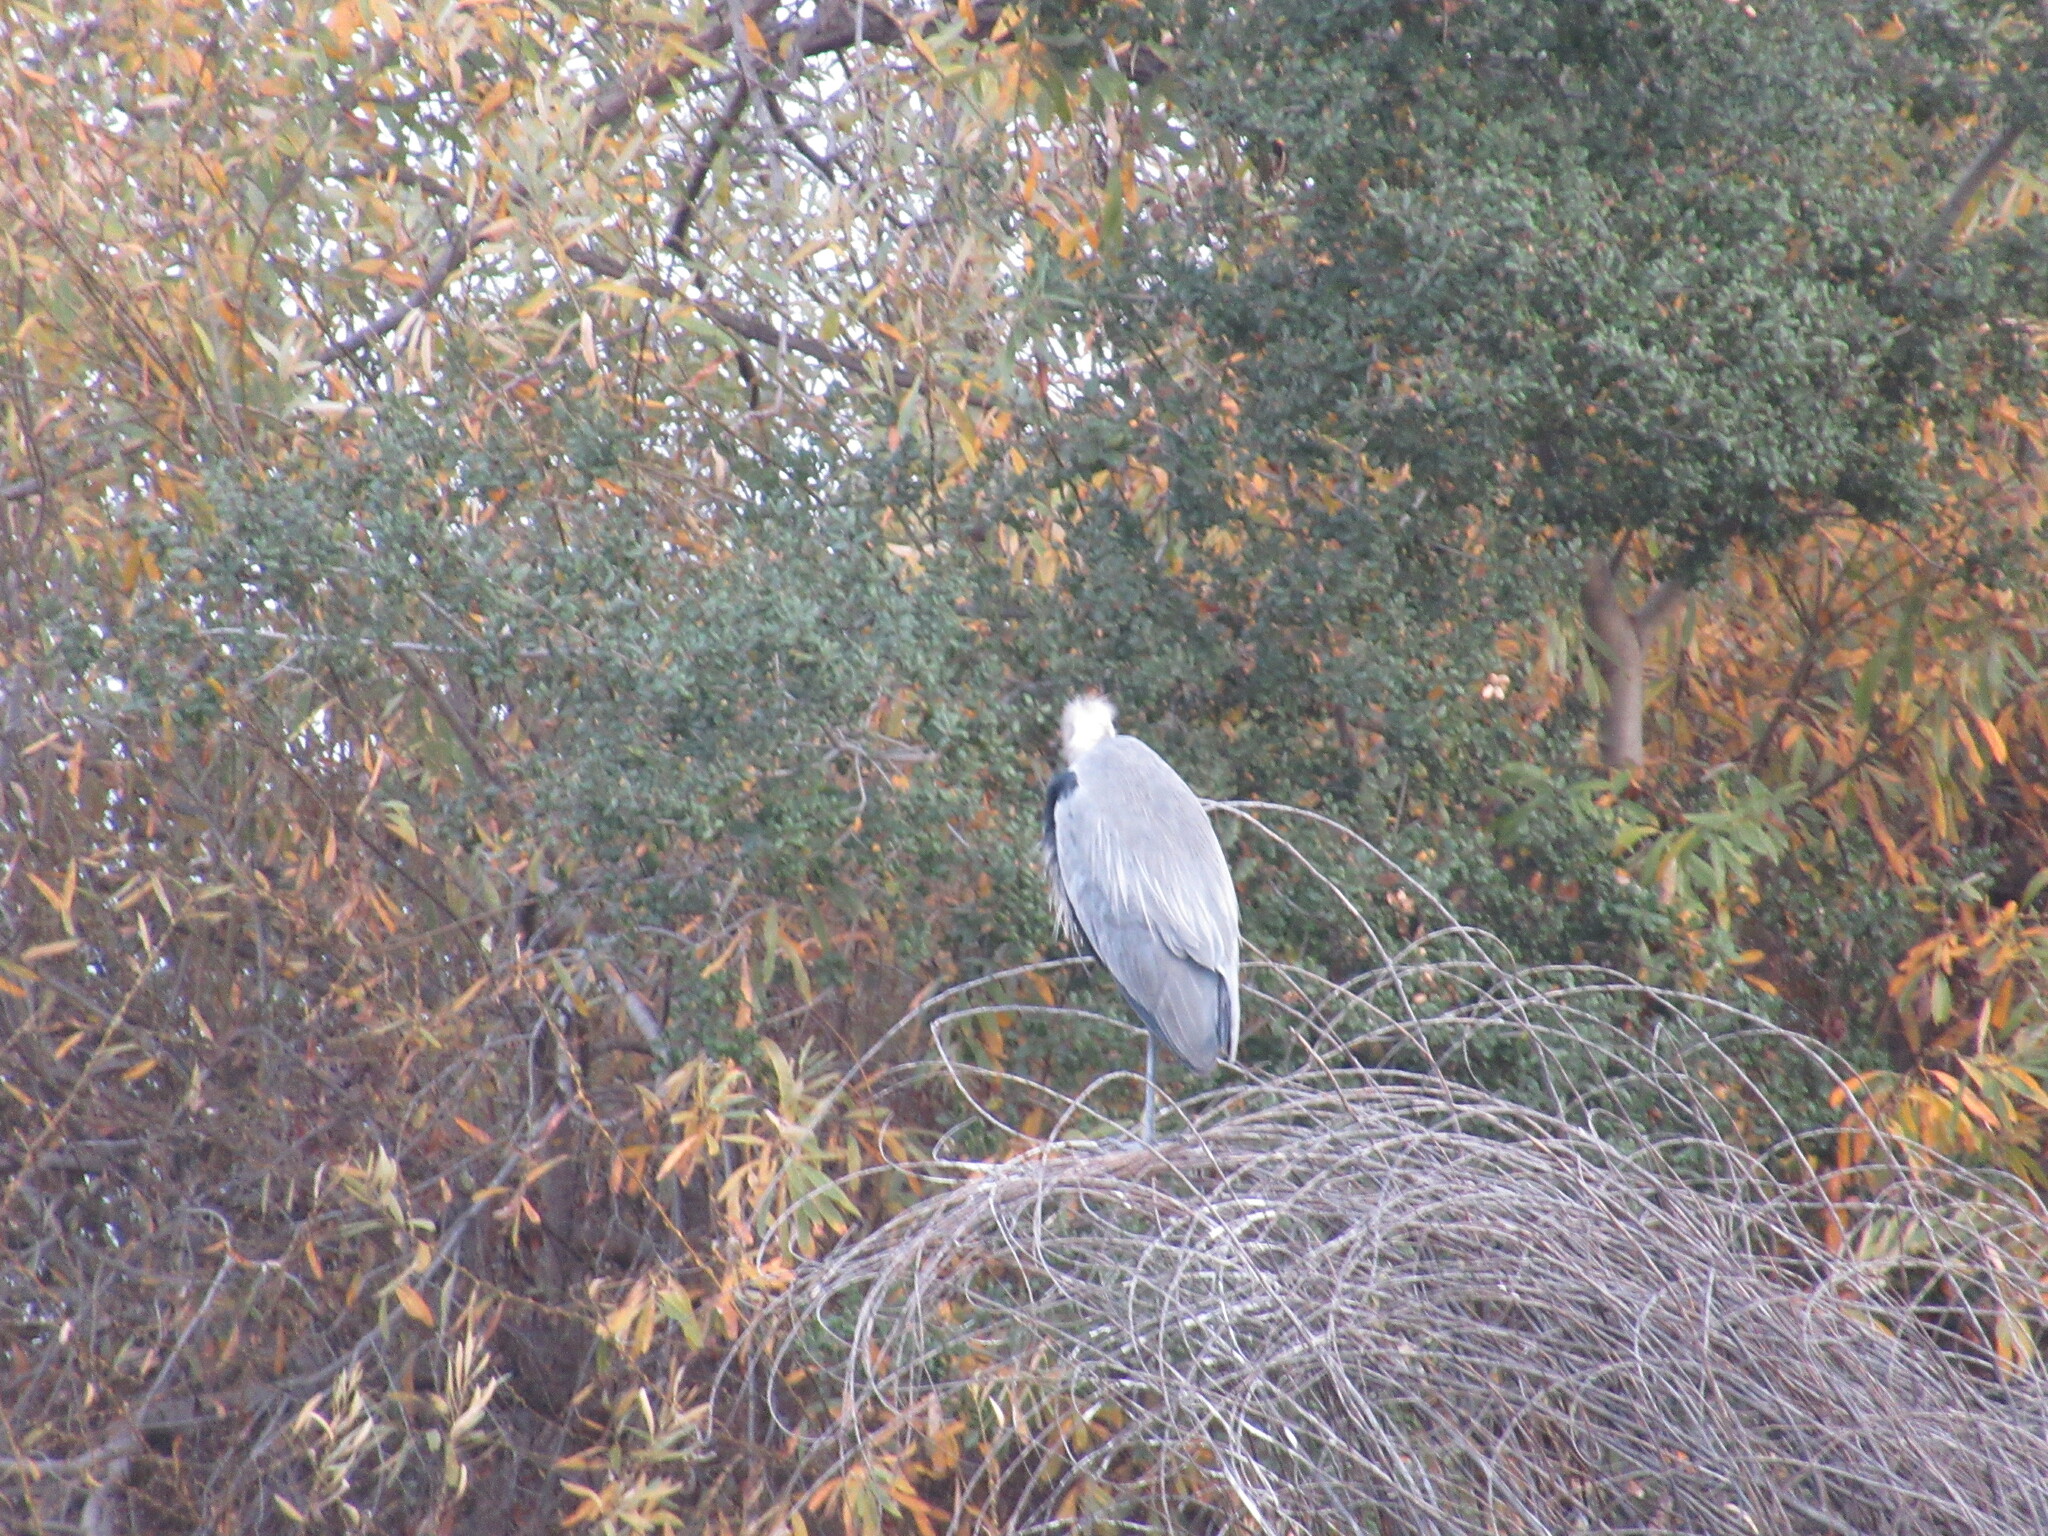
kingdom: Animalia
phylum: Chordata
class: Aves
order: Pelecaniformes
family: Ardeidae
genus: Ardea
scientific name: Ardea herodias
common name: Great blue heron
